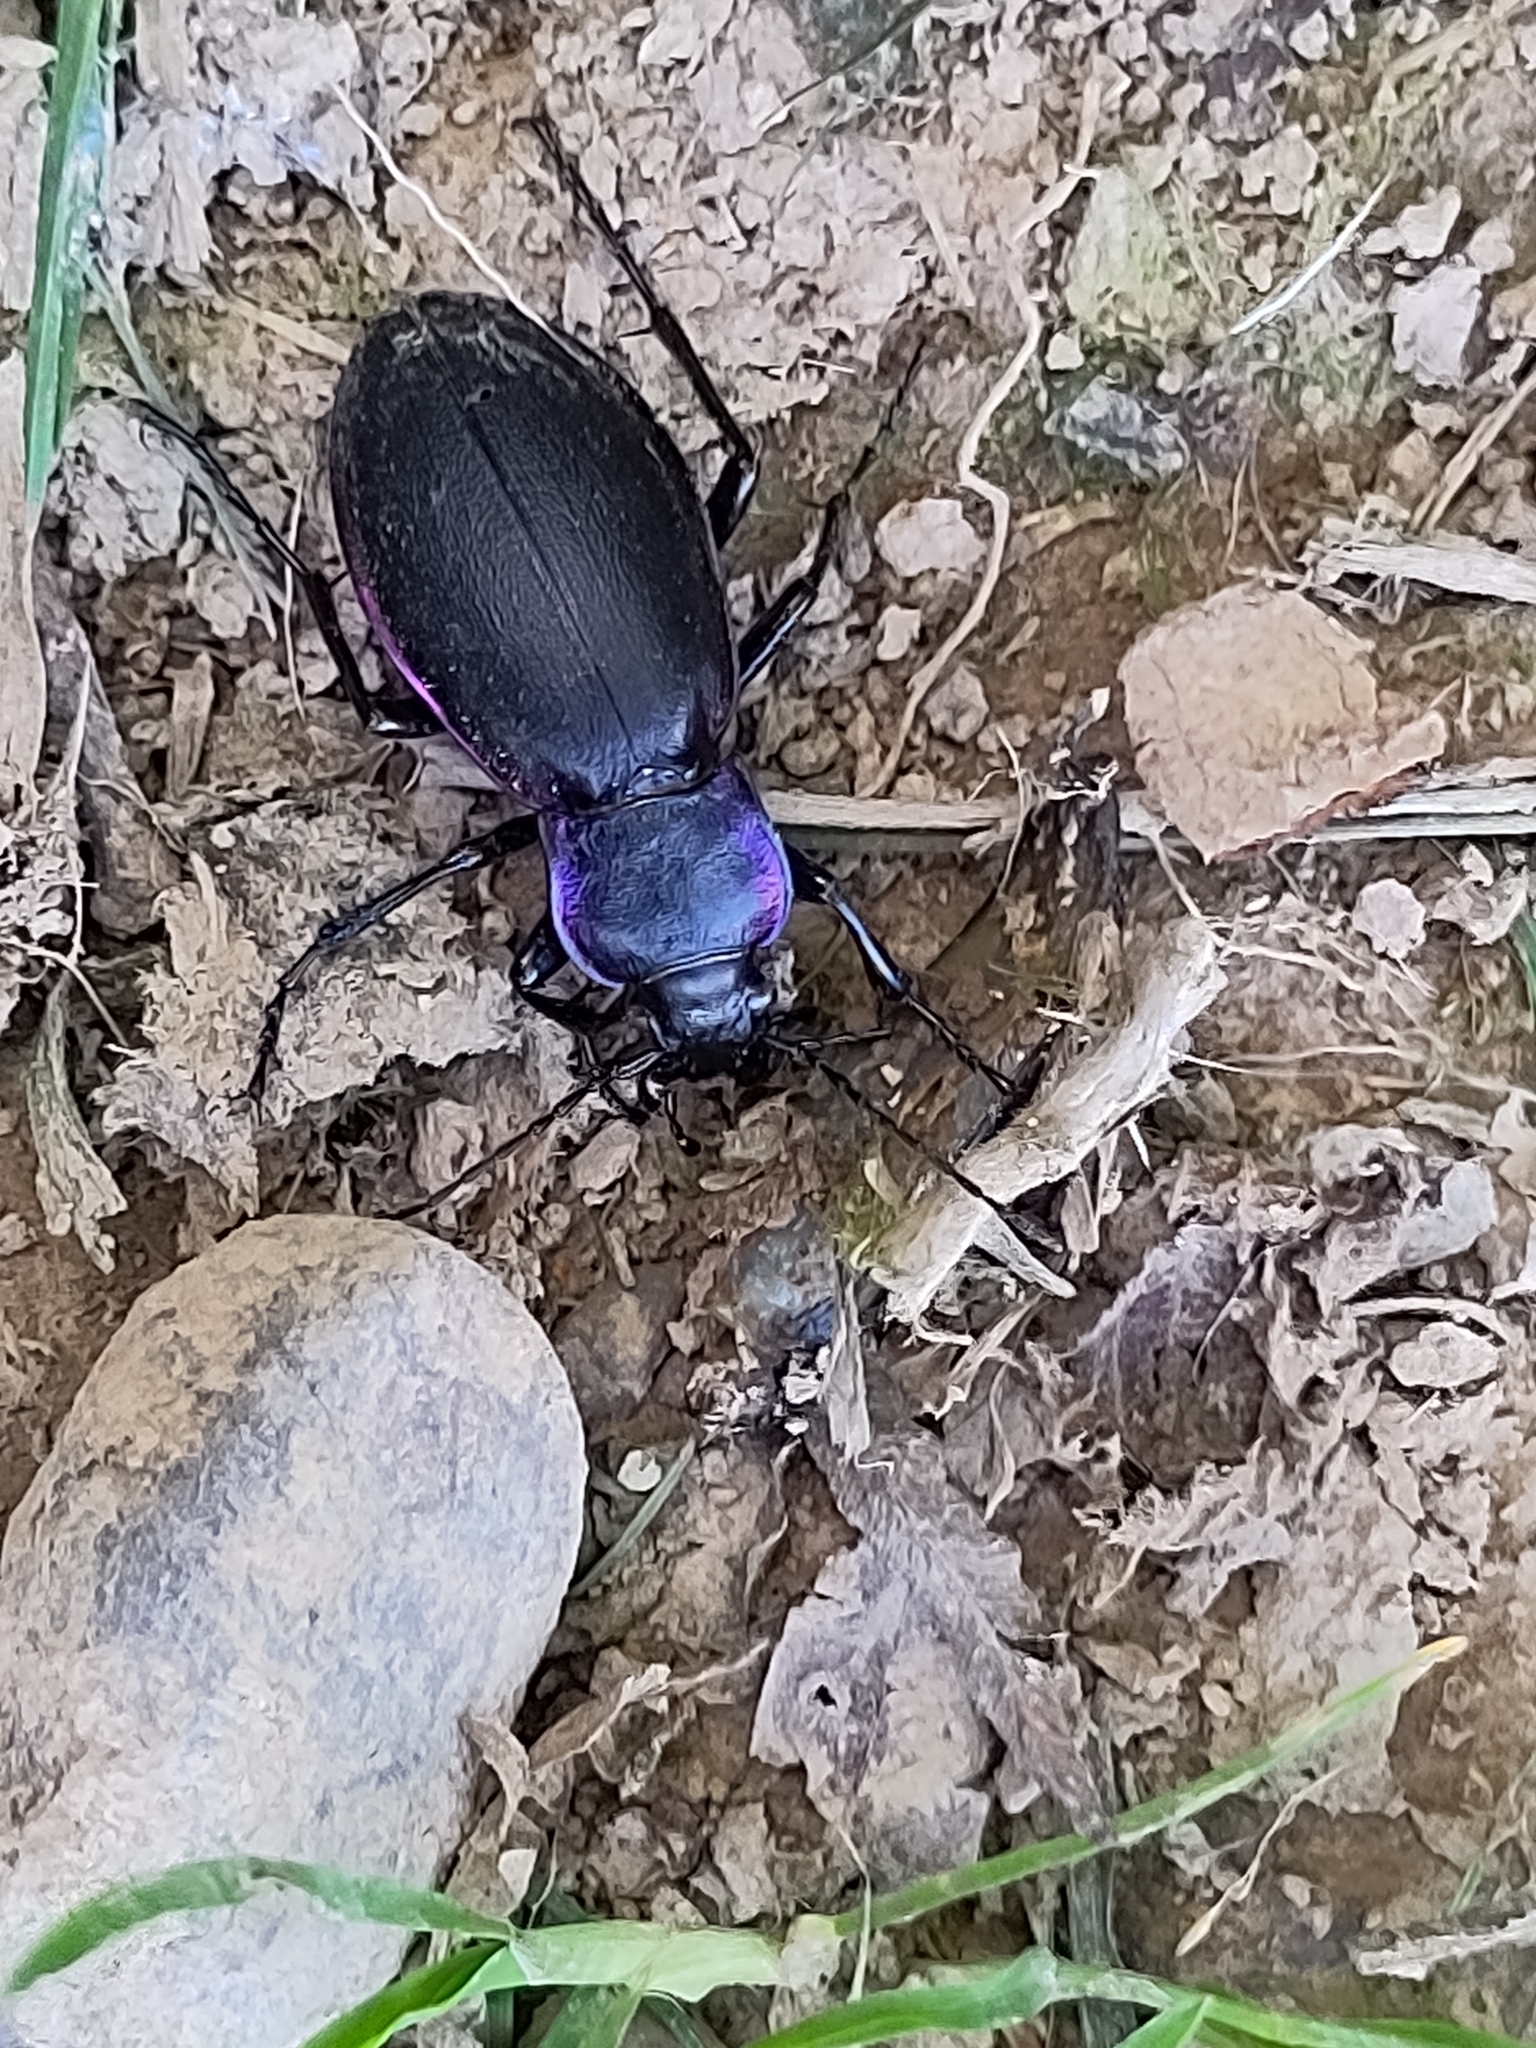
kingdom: Animalia
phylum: Arthropoda
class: Insecta
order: Coleoptera
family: Carabidae
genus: Carabus
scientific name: Carabus violaceus
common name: Violet ground beetle
